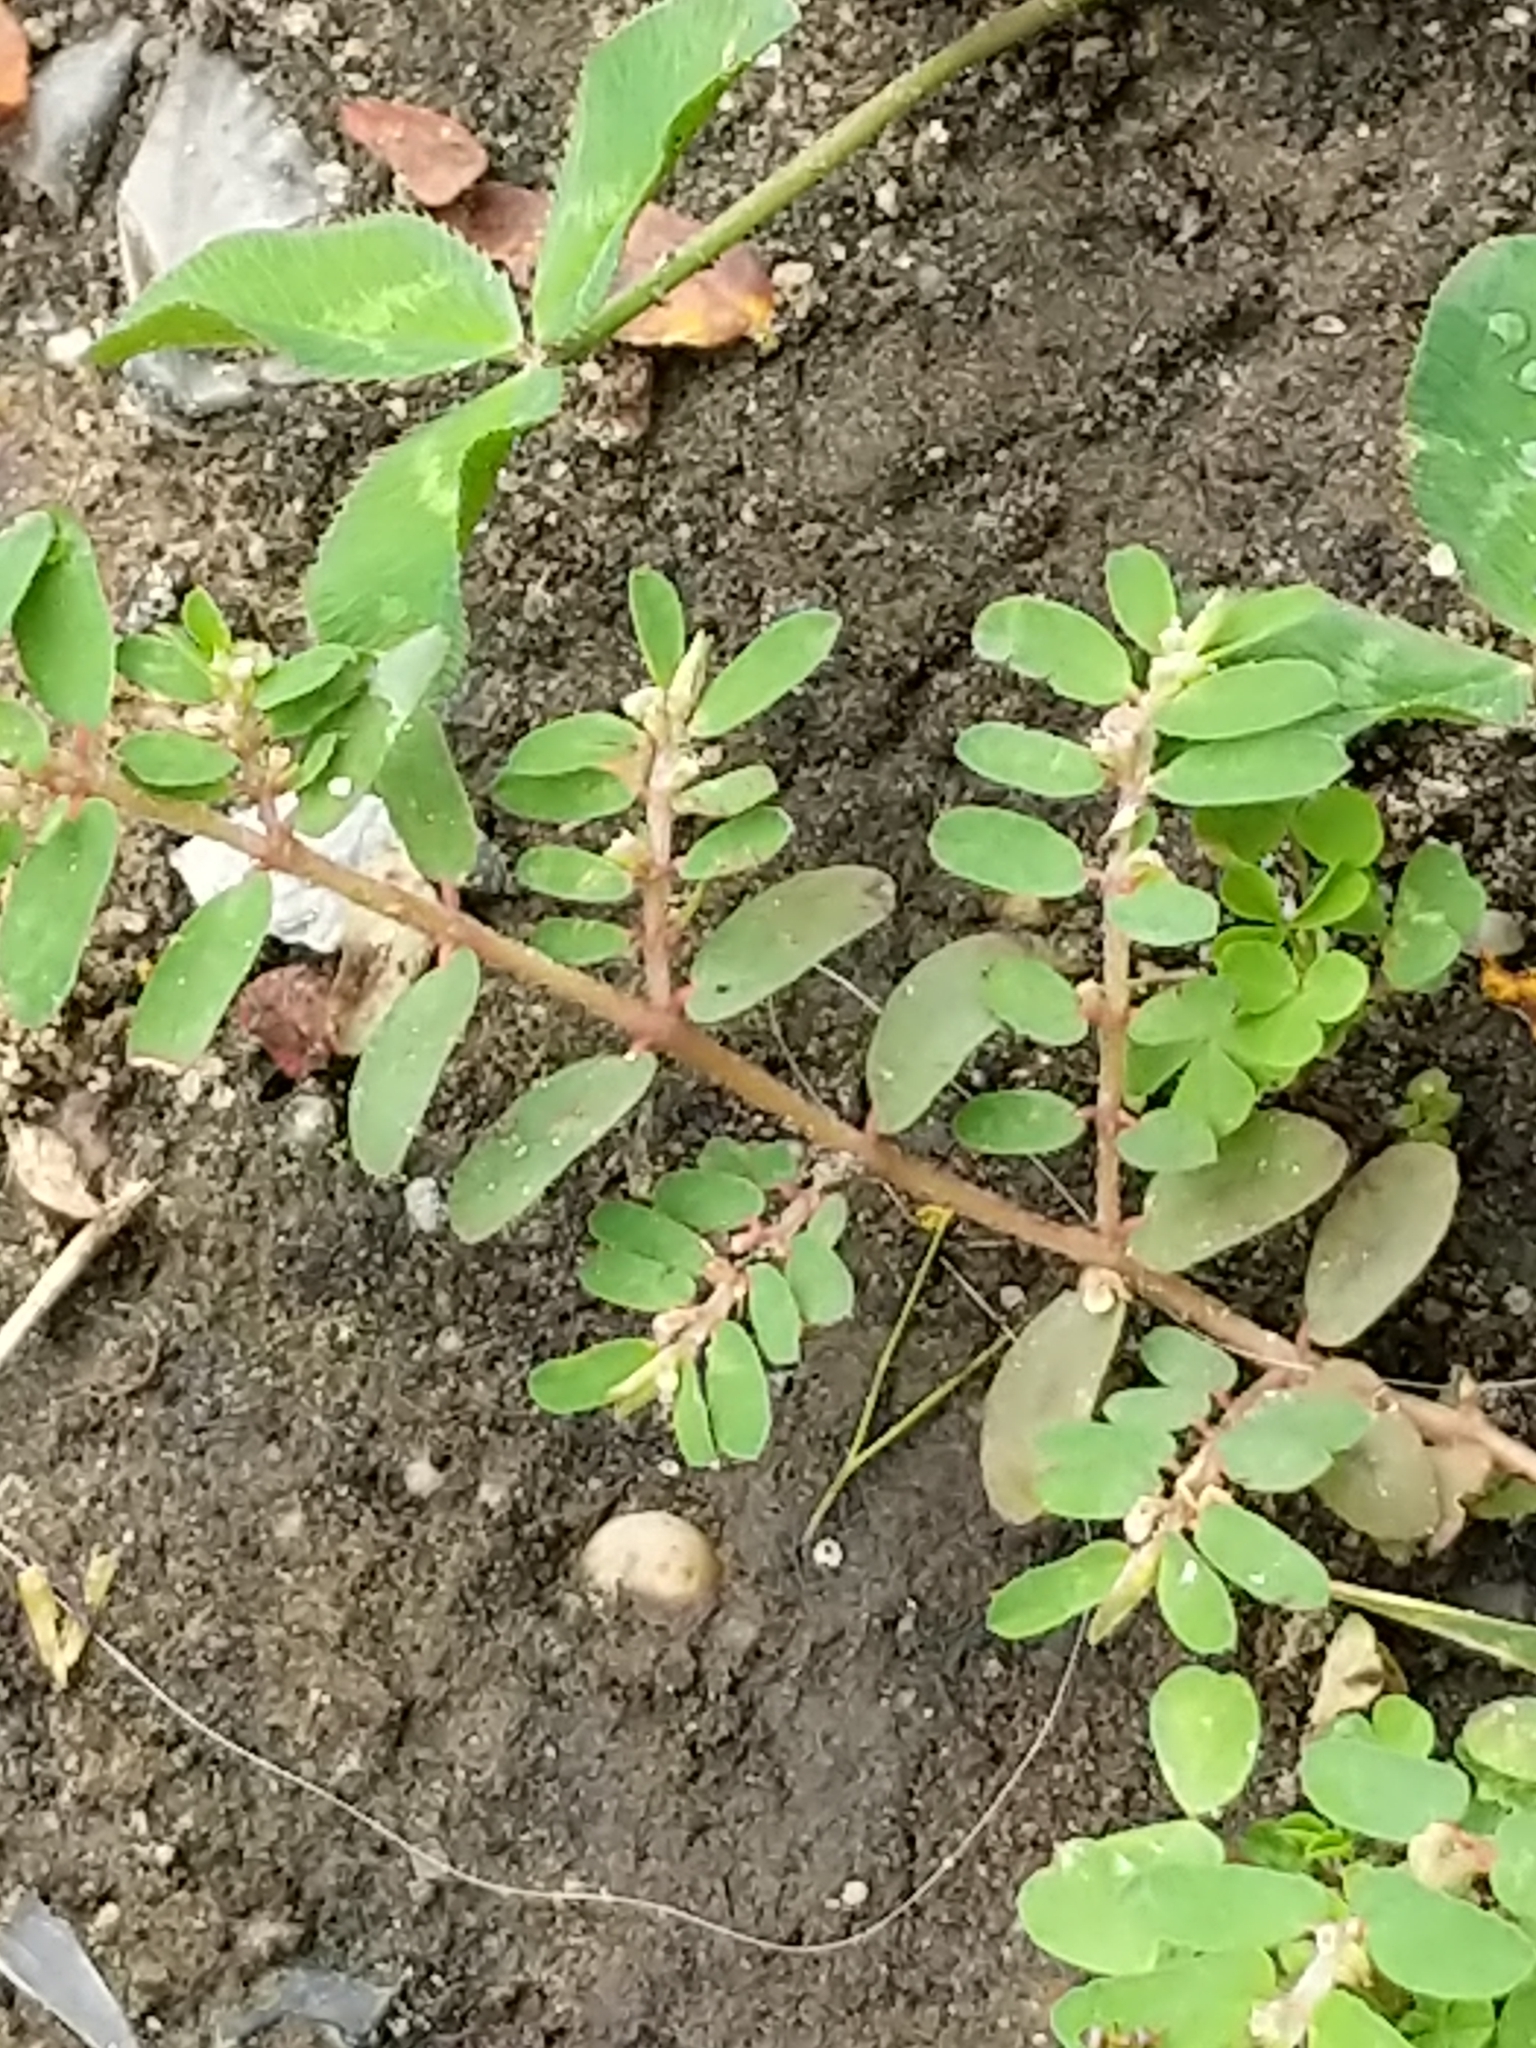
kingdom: Plantae
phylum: Tracheophyta
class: Magnoliopsida
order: Malpighiales
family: Euphorbiaceae
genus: Euphorbia
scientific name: Euphorbia maculata
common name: Spotted spurge
